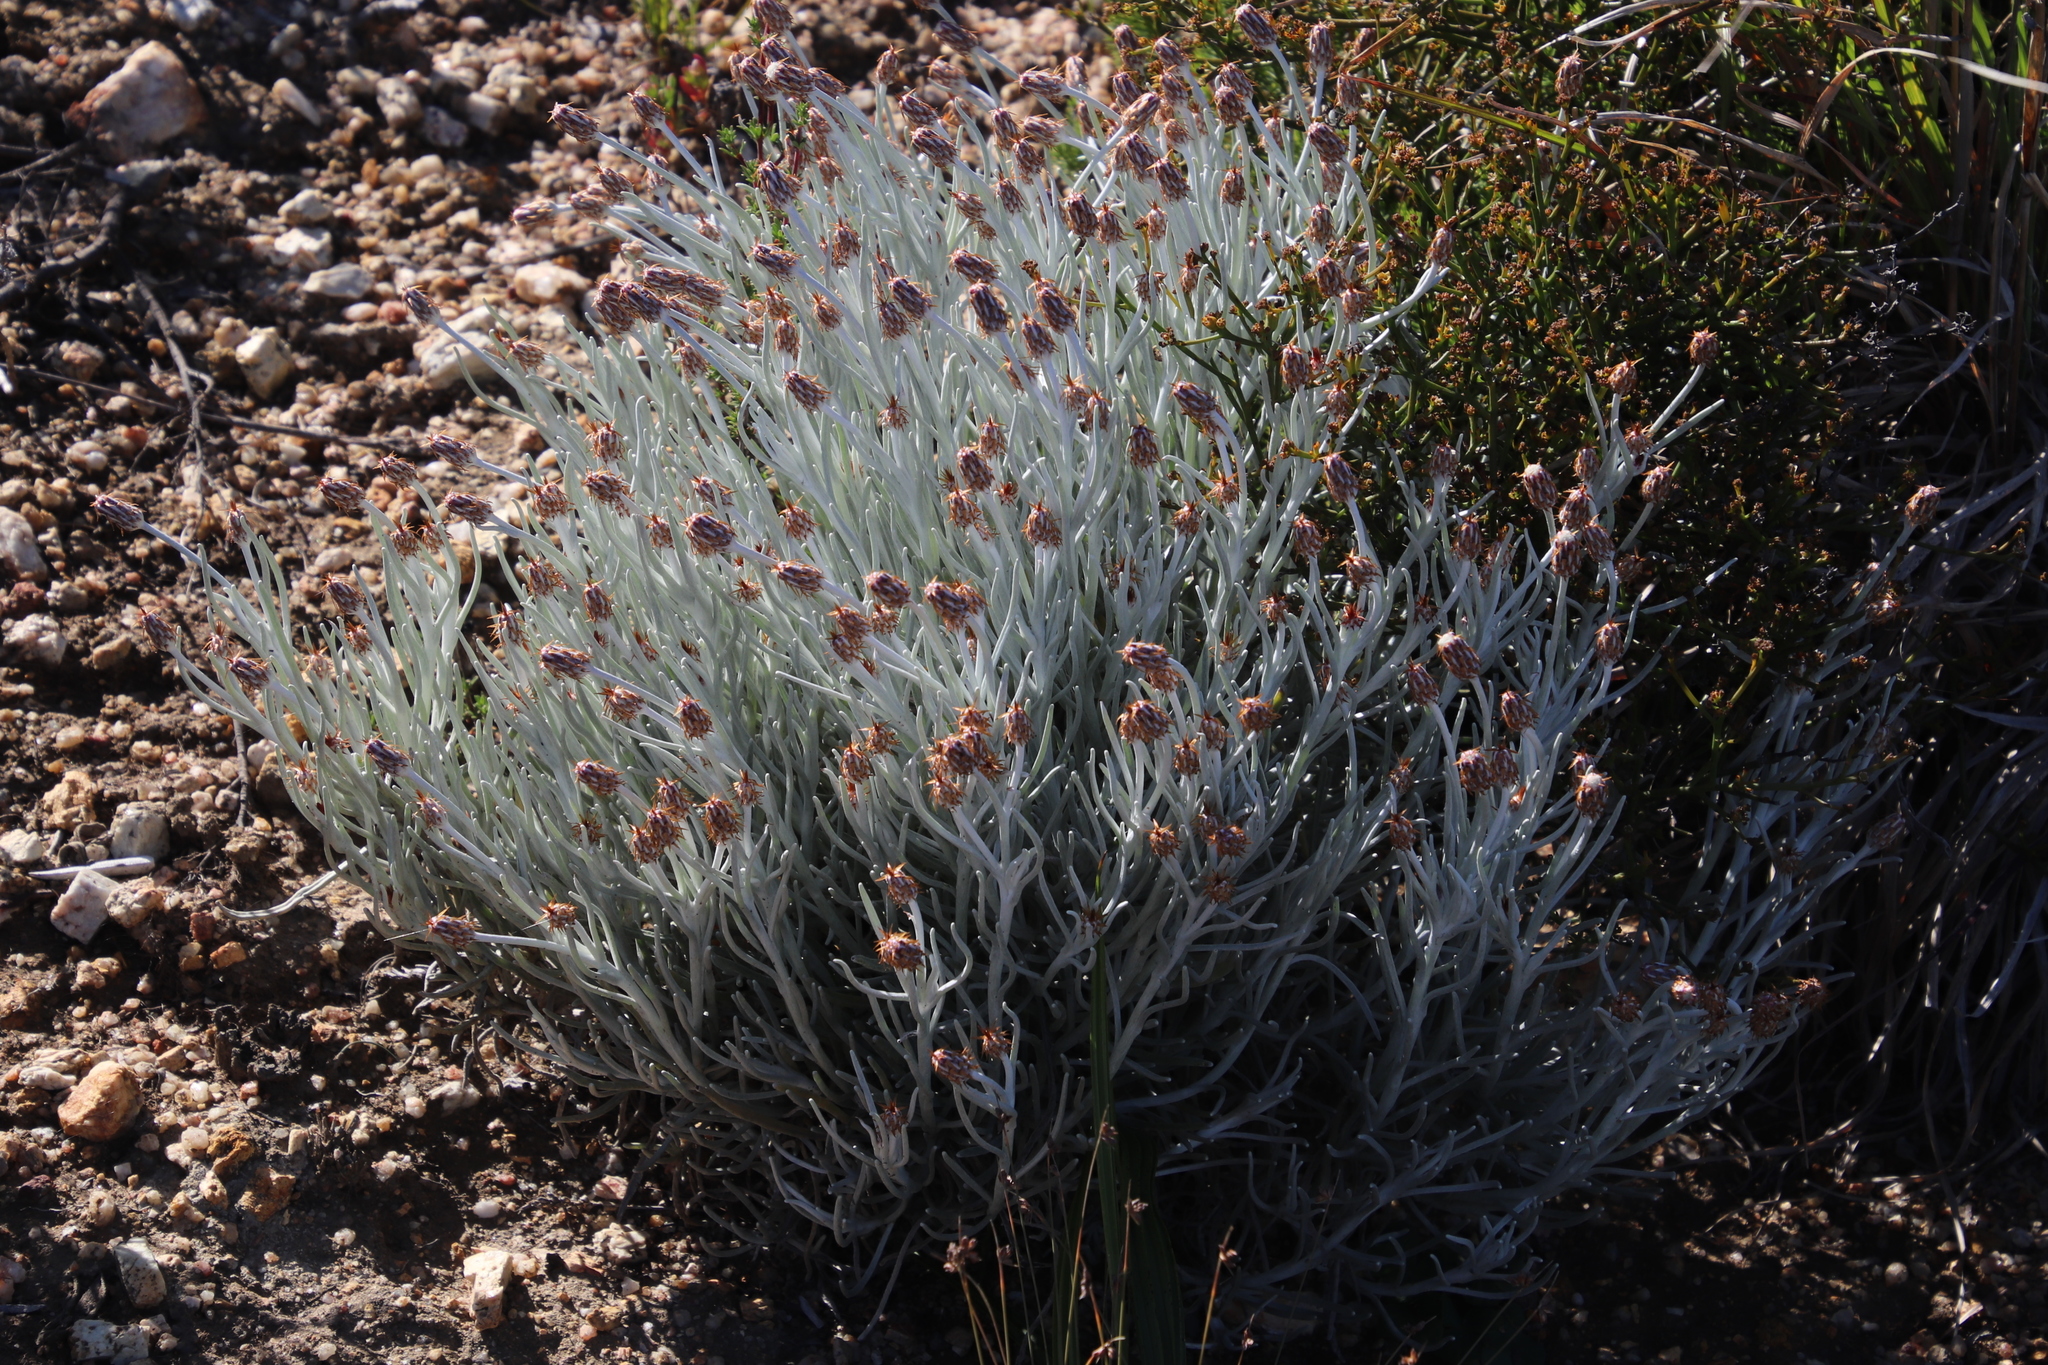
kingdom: Plantae
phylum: Tracheophyta
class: Magnoliopsida
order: Asterales
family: Asteraceae
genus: Syncarpha
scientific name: Syncarpha gnaphaloides
